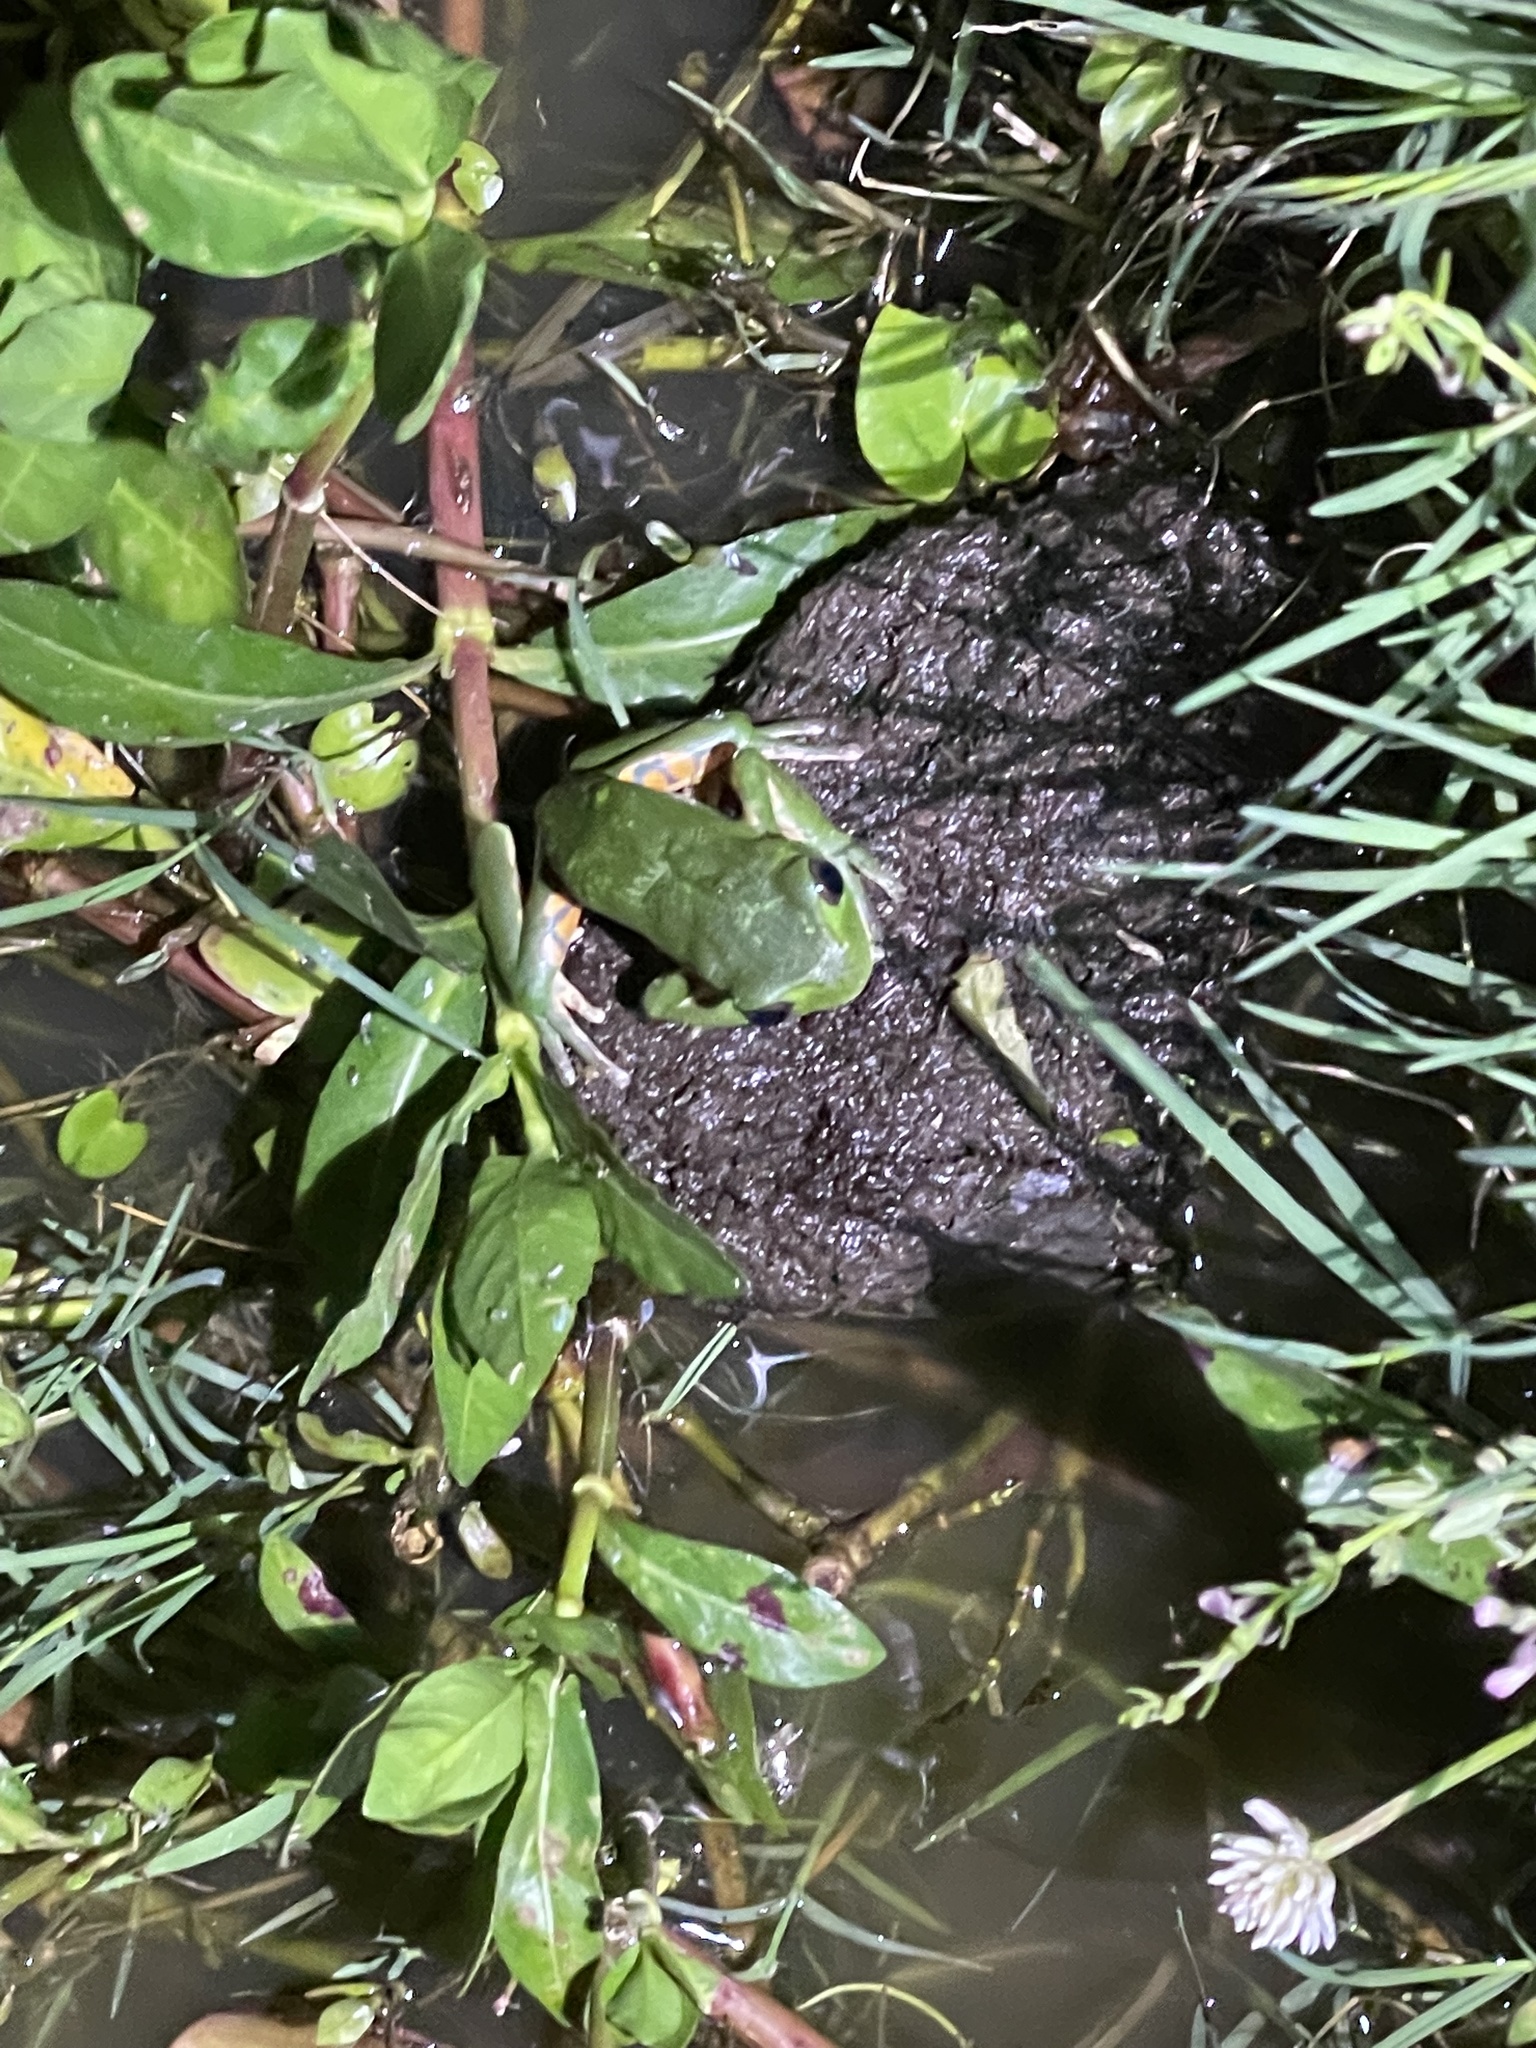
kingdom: Animalia
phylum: Chordata
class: Amphibia
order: Anura
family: Phyllomedusidae
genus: Phyllomedusa
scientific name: Phyllomedusa iheringii
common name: Southern walking leaf frog
